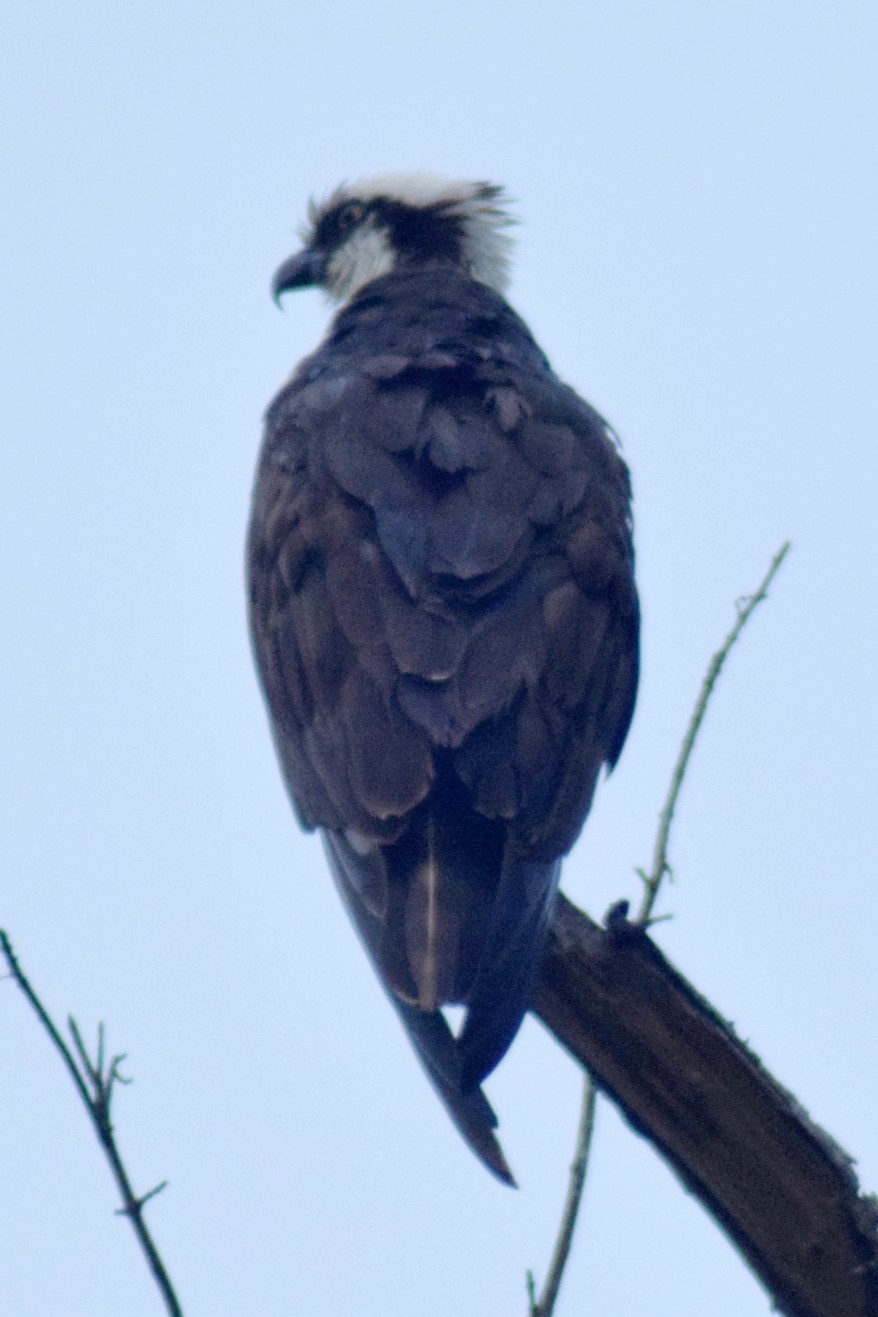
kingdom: Animalia
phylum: Chordata
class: Aves
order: Accipitriformes
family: Pandionidae
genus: Pandion
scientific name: Pandion haliaetus
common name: Osprey
